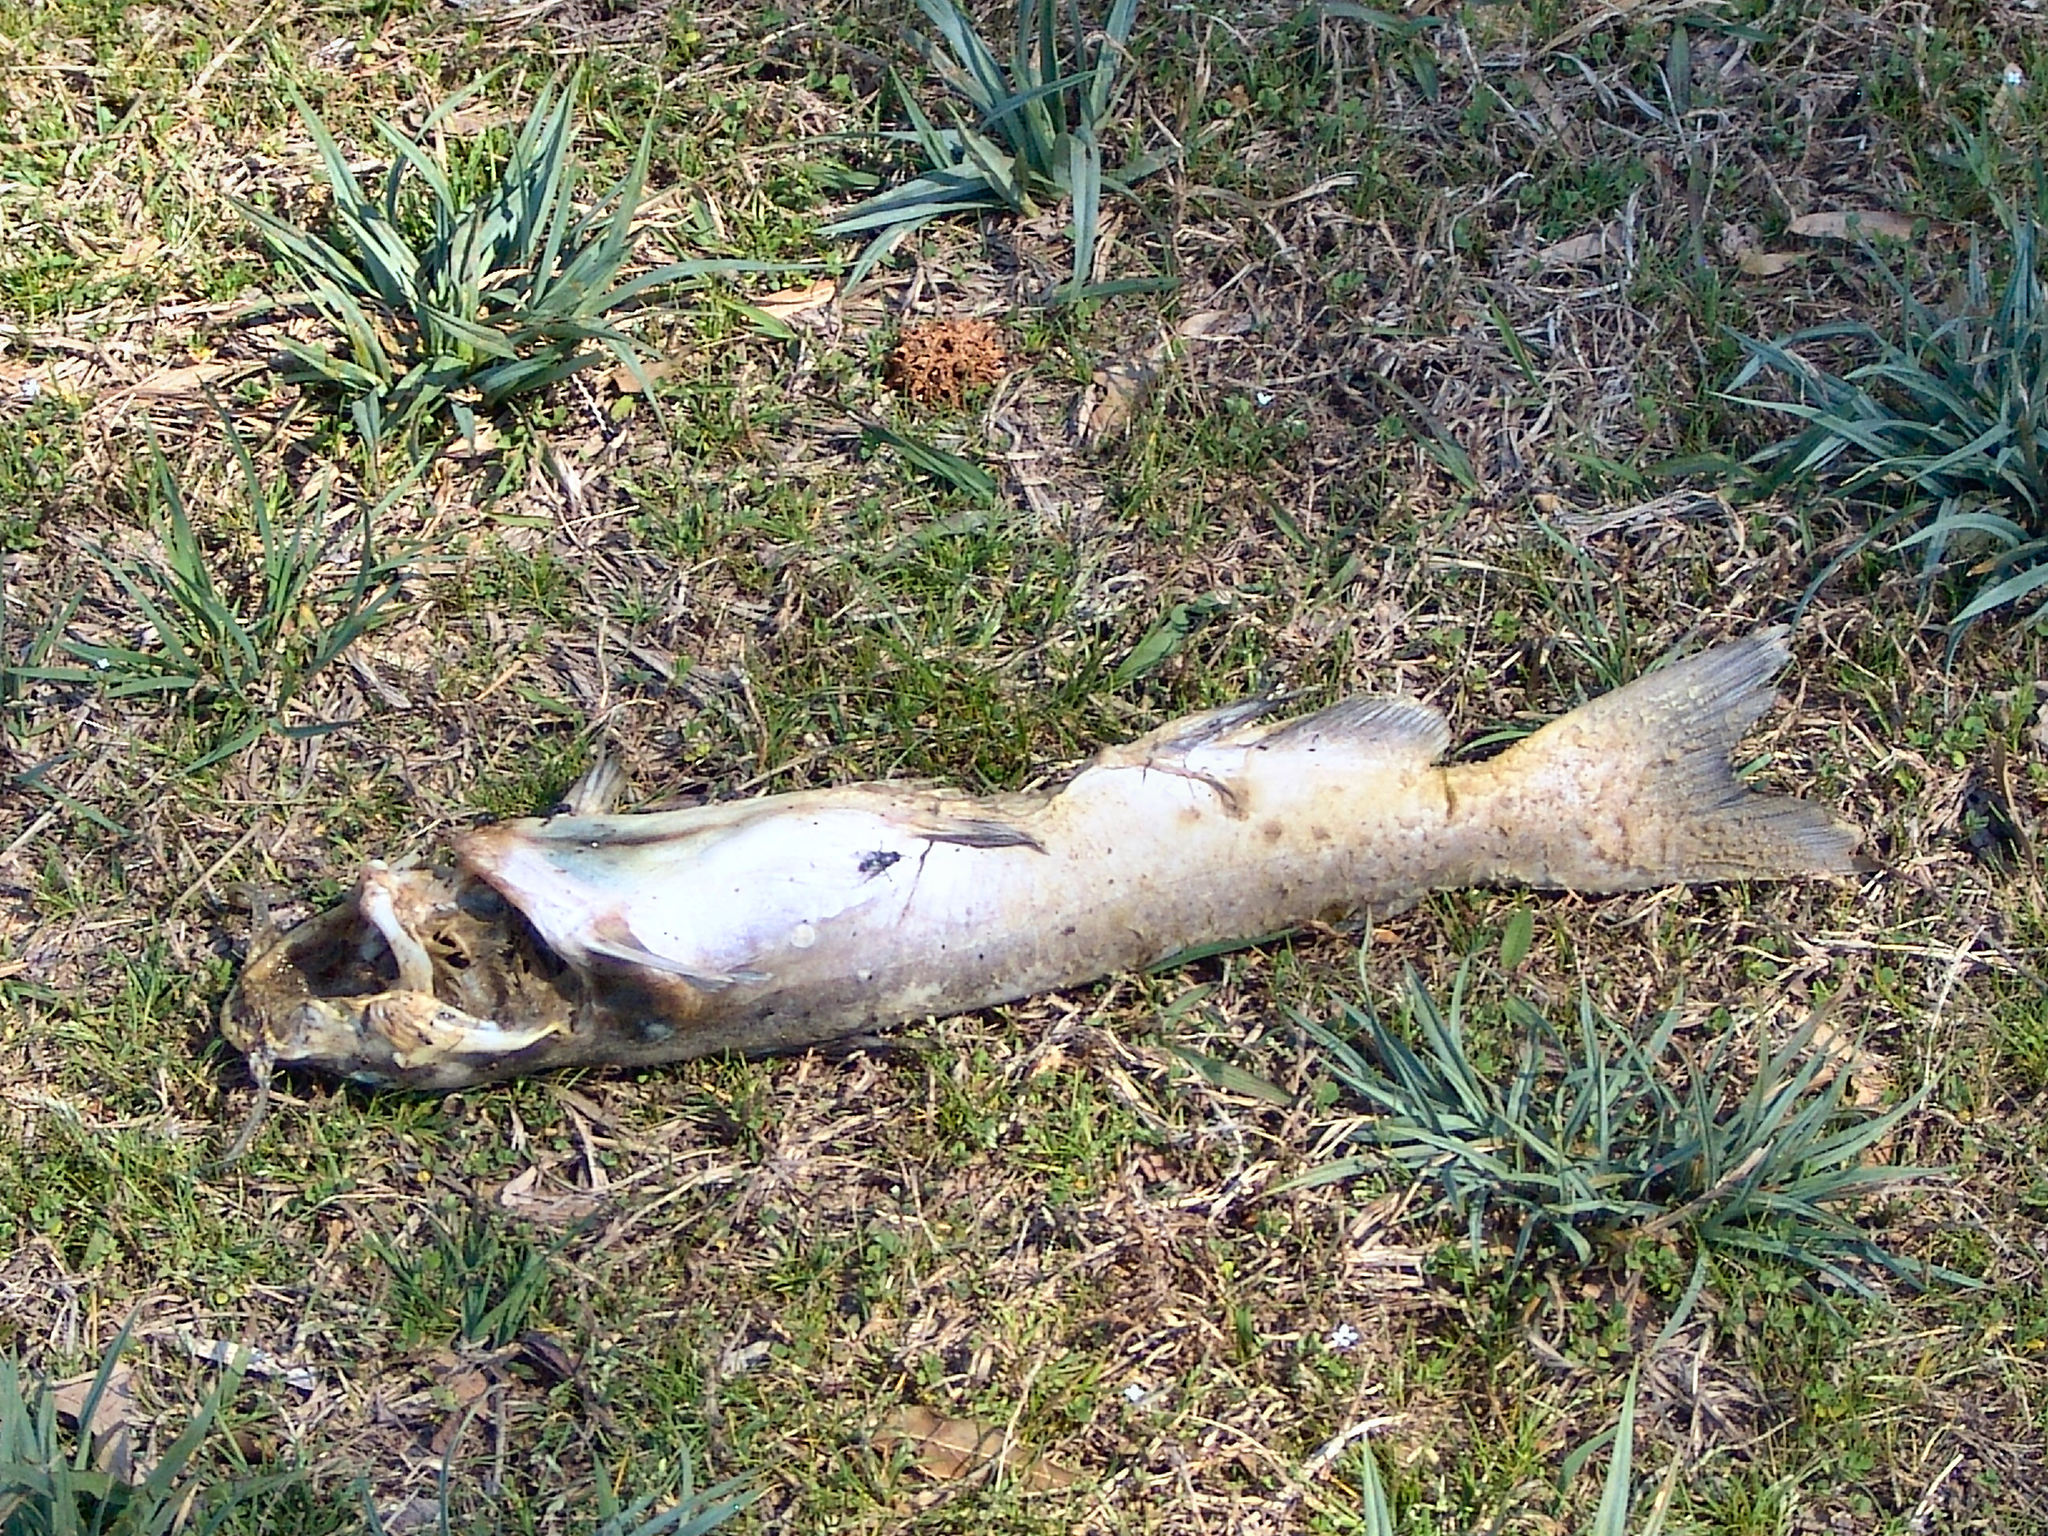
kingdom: Animalia
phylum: Chordata
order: Siluriformes
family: Ictaluridae
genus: Ictalurus
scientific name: Ictalurus punctatus
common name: Channel catfish
